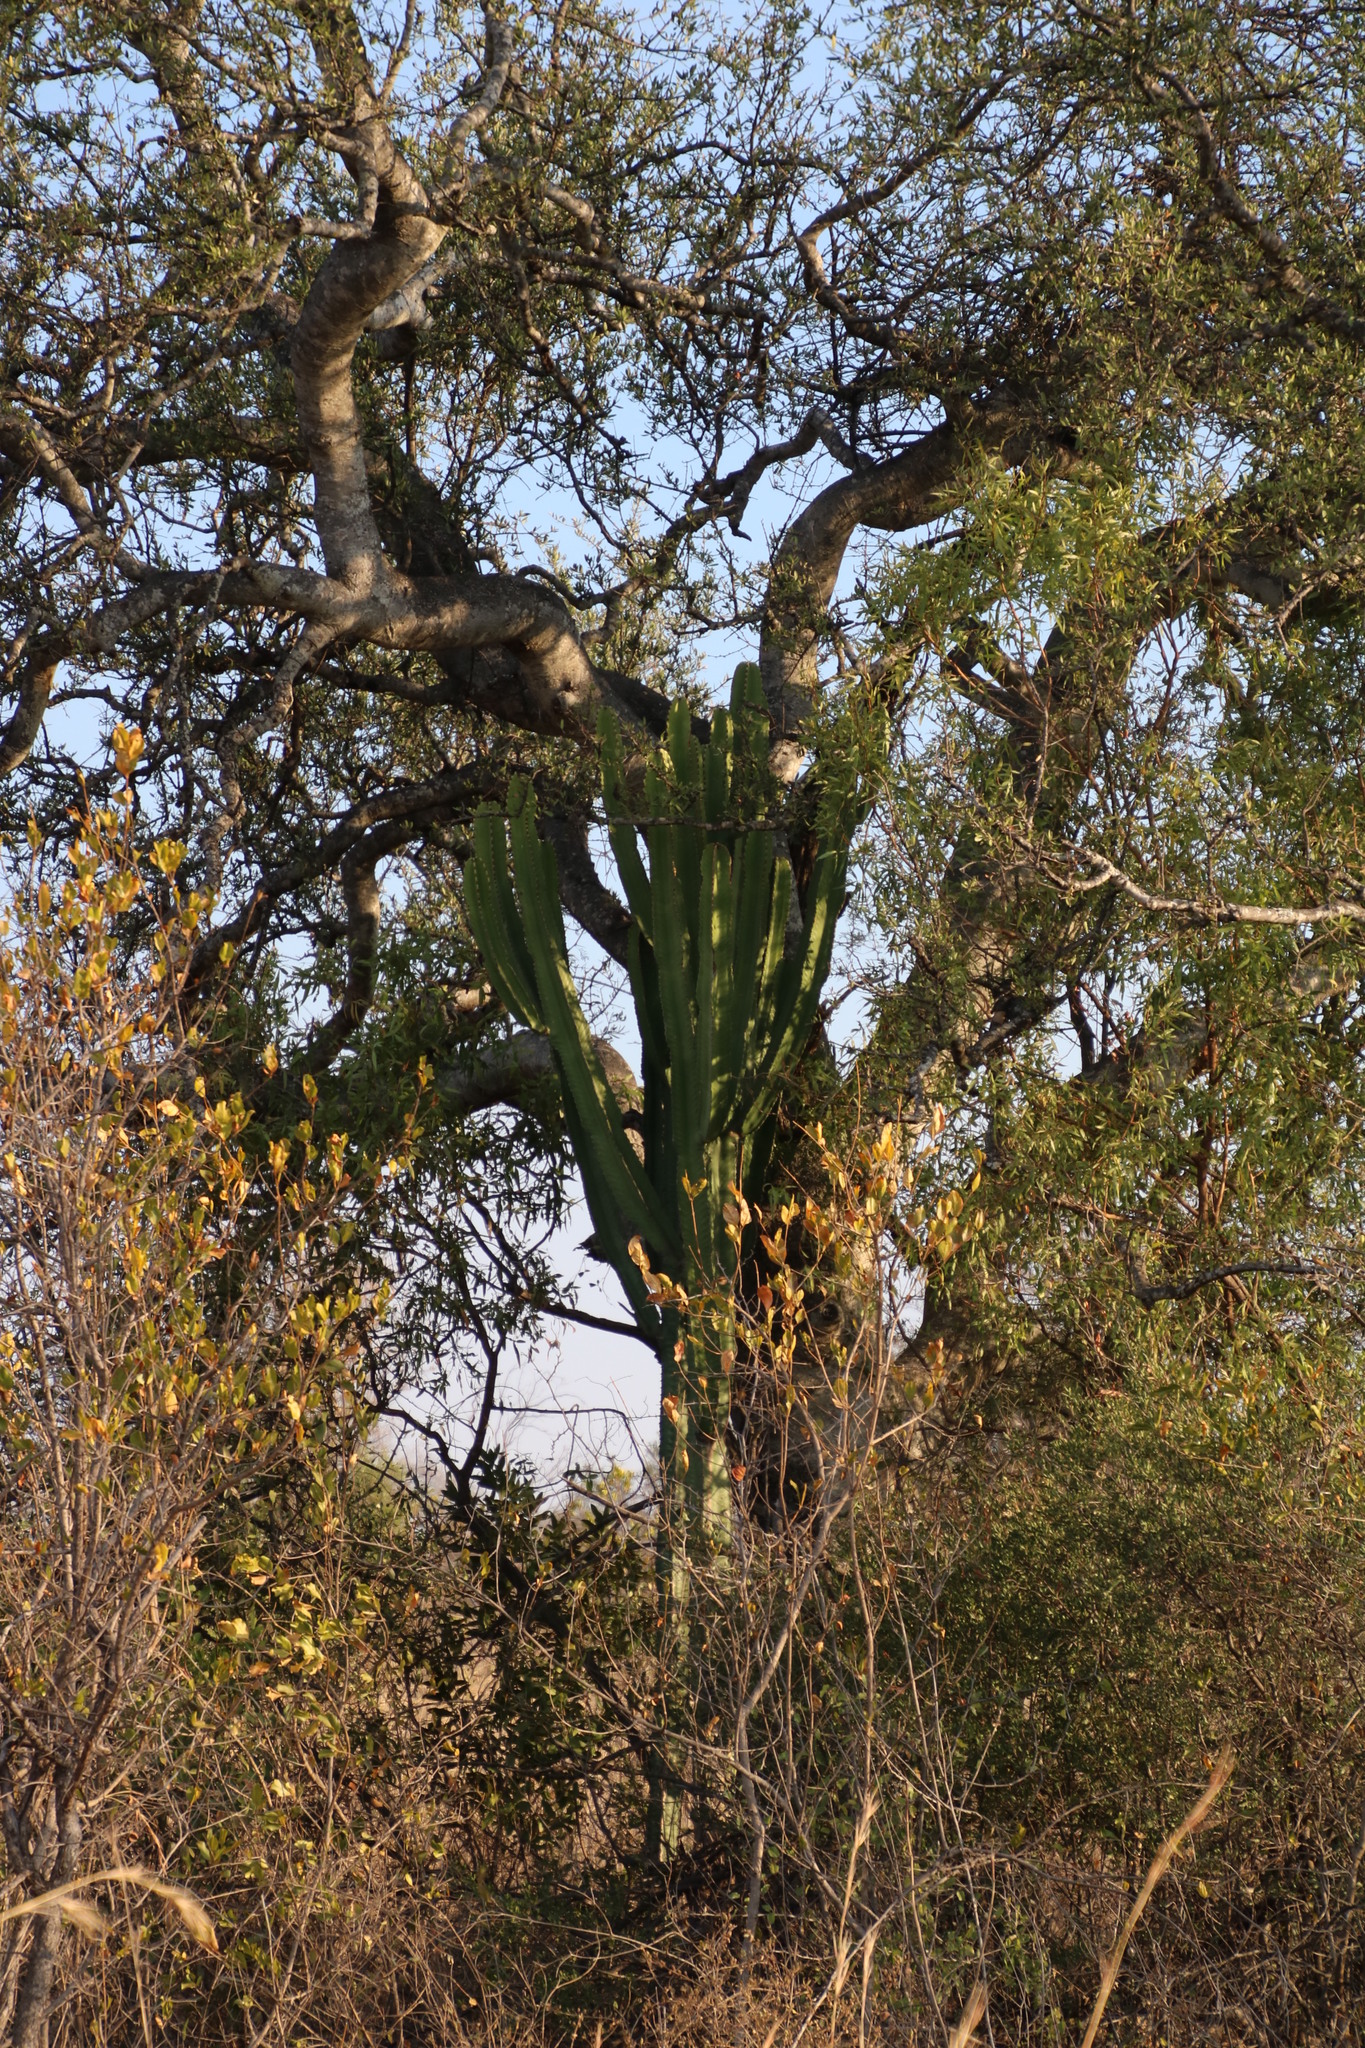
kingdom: Plantae
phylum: Tracheophyta
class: Magnoliopsida
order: Malpighiales
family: Euphorbiaceae
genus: Euphorbia
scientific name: Euphorbia ingens
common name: Cactus spurge
